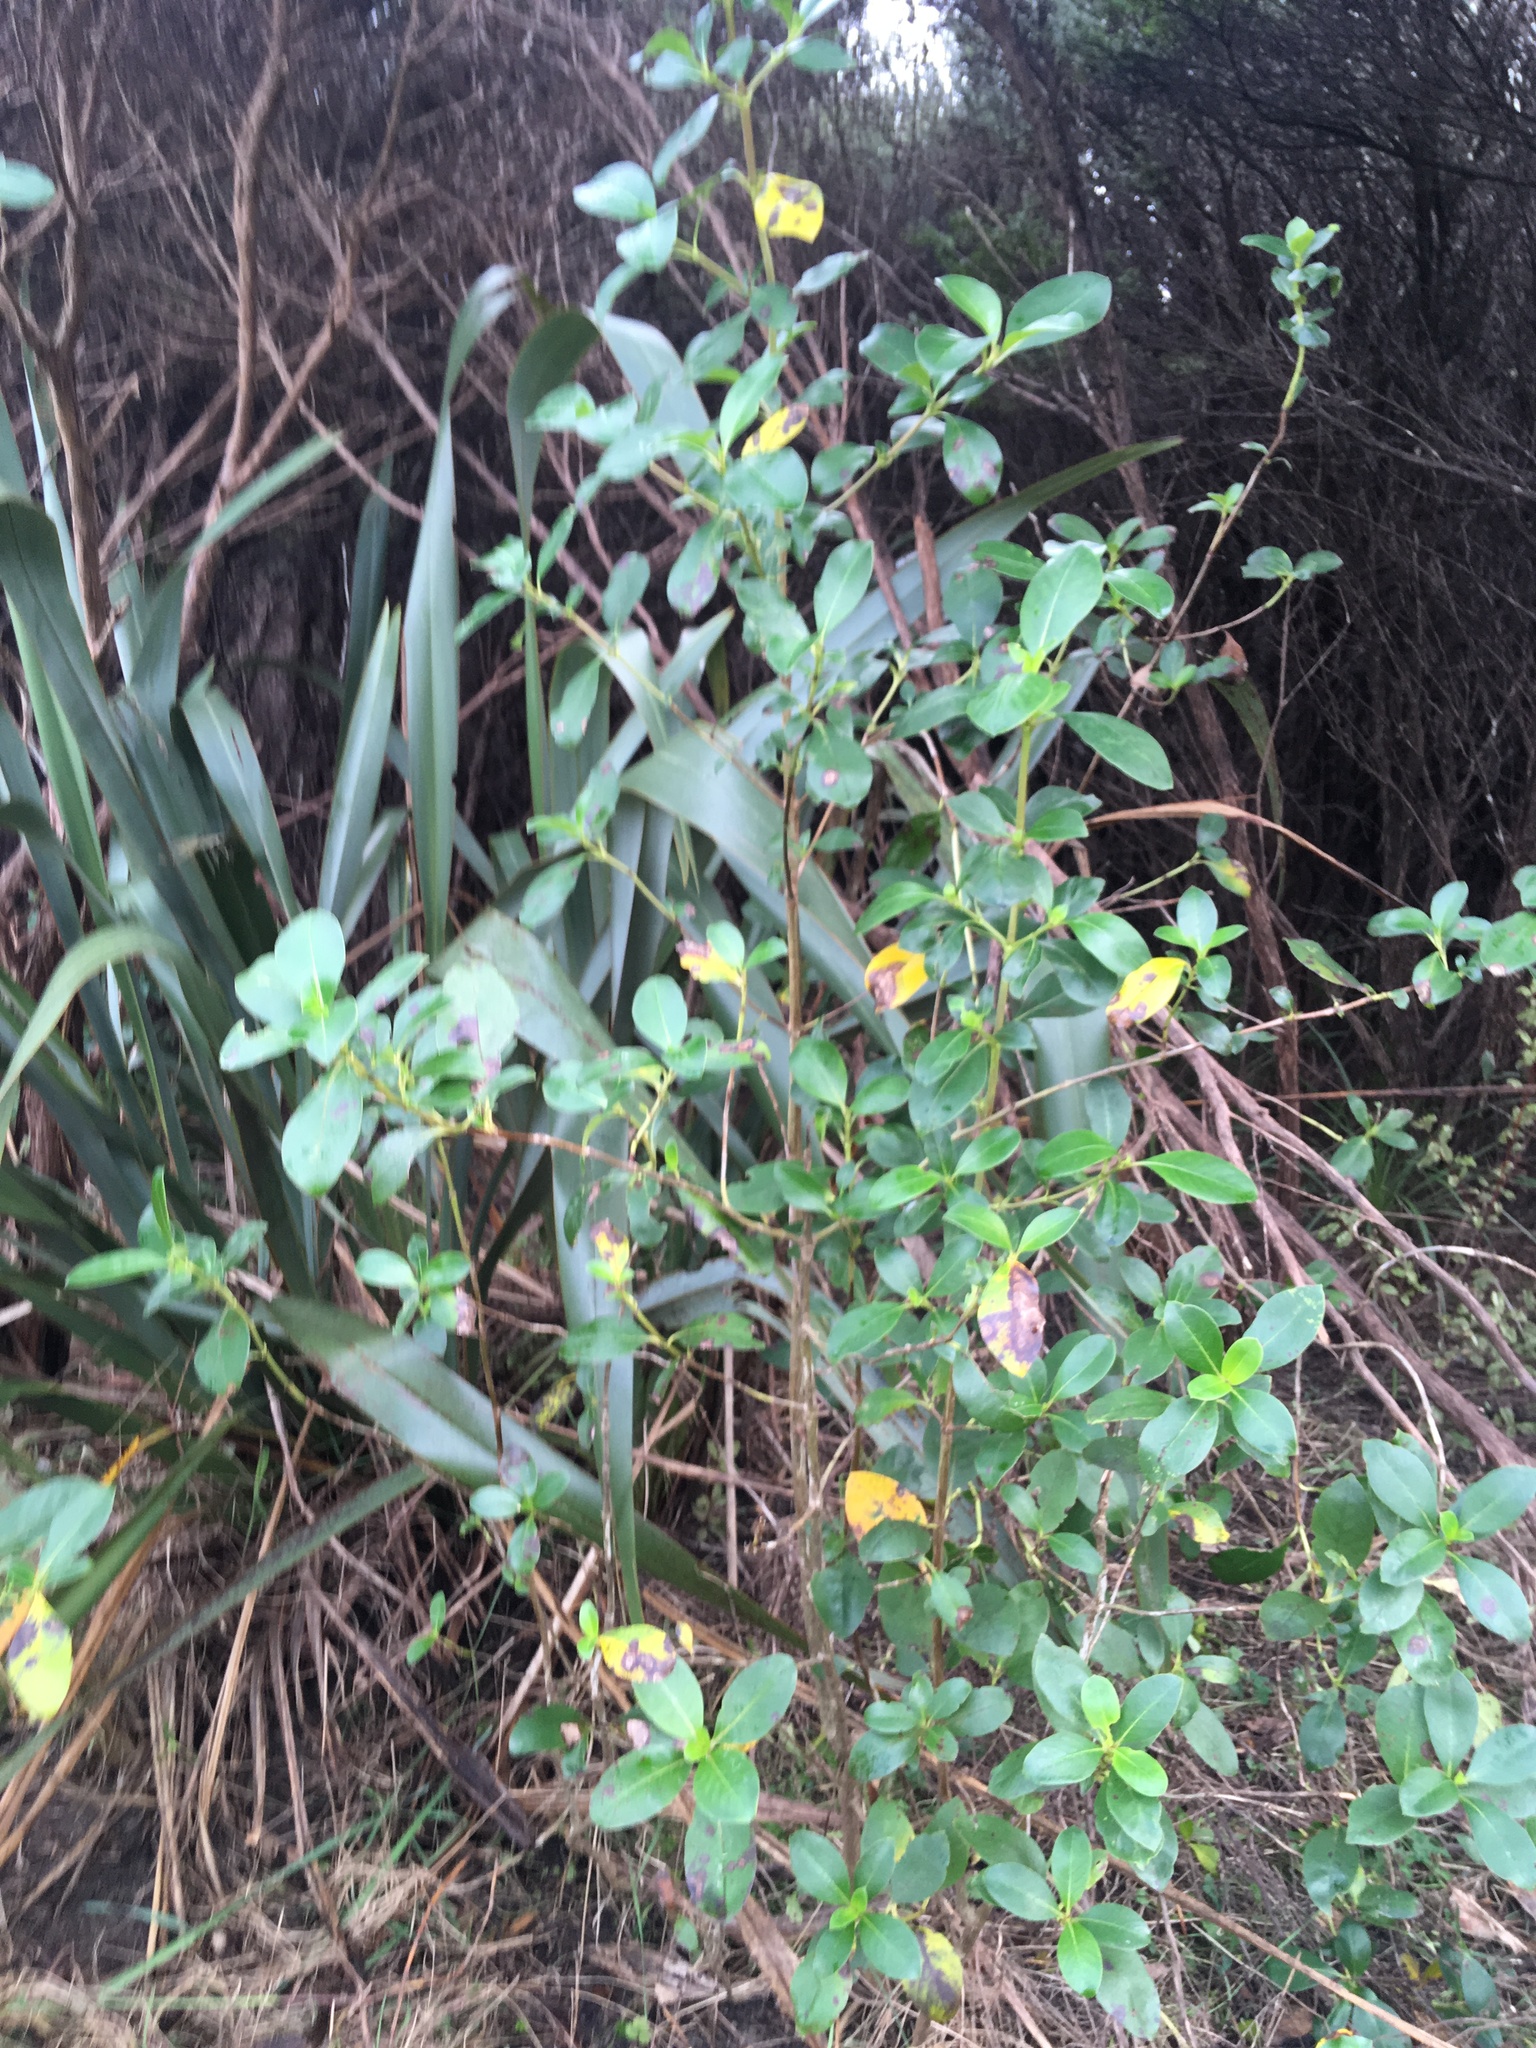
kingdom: Plantae
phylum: Tracheophyta
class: Magnoliopsida
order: Gentianales
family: Rubiaceae
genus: Coprosma
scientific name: Coprosma robusta
